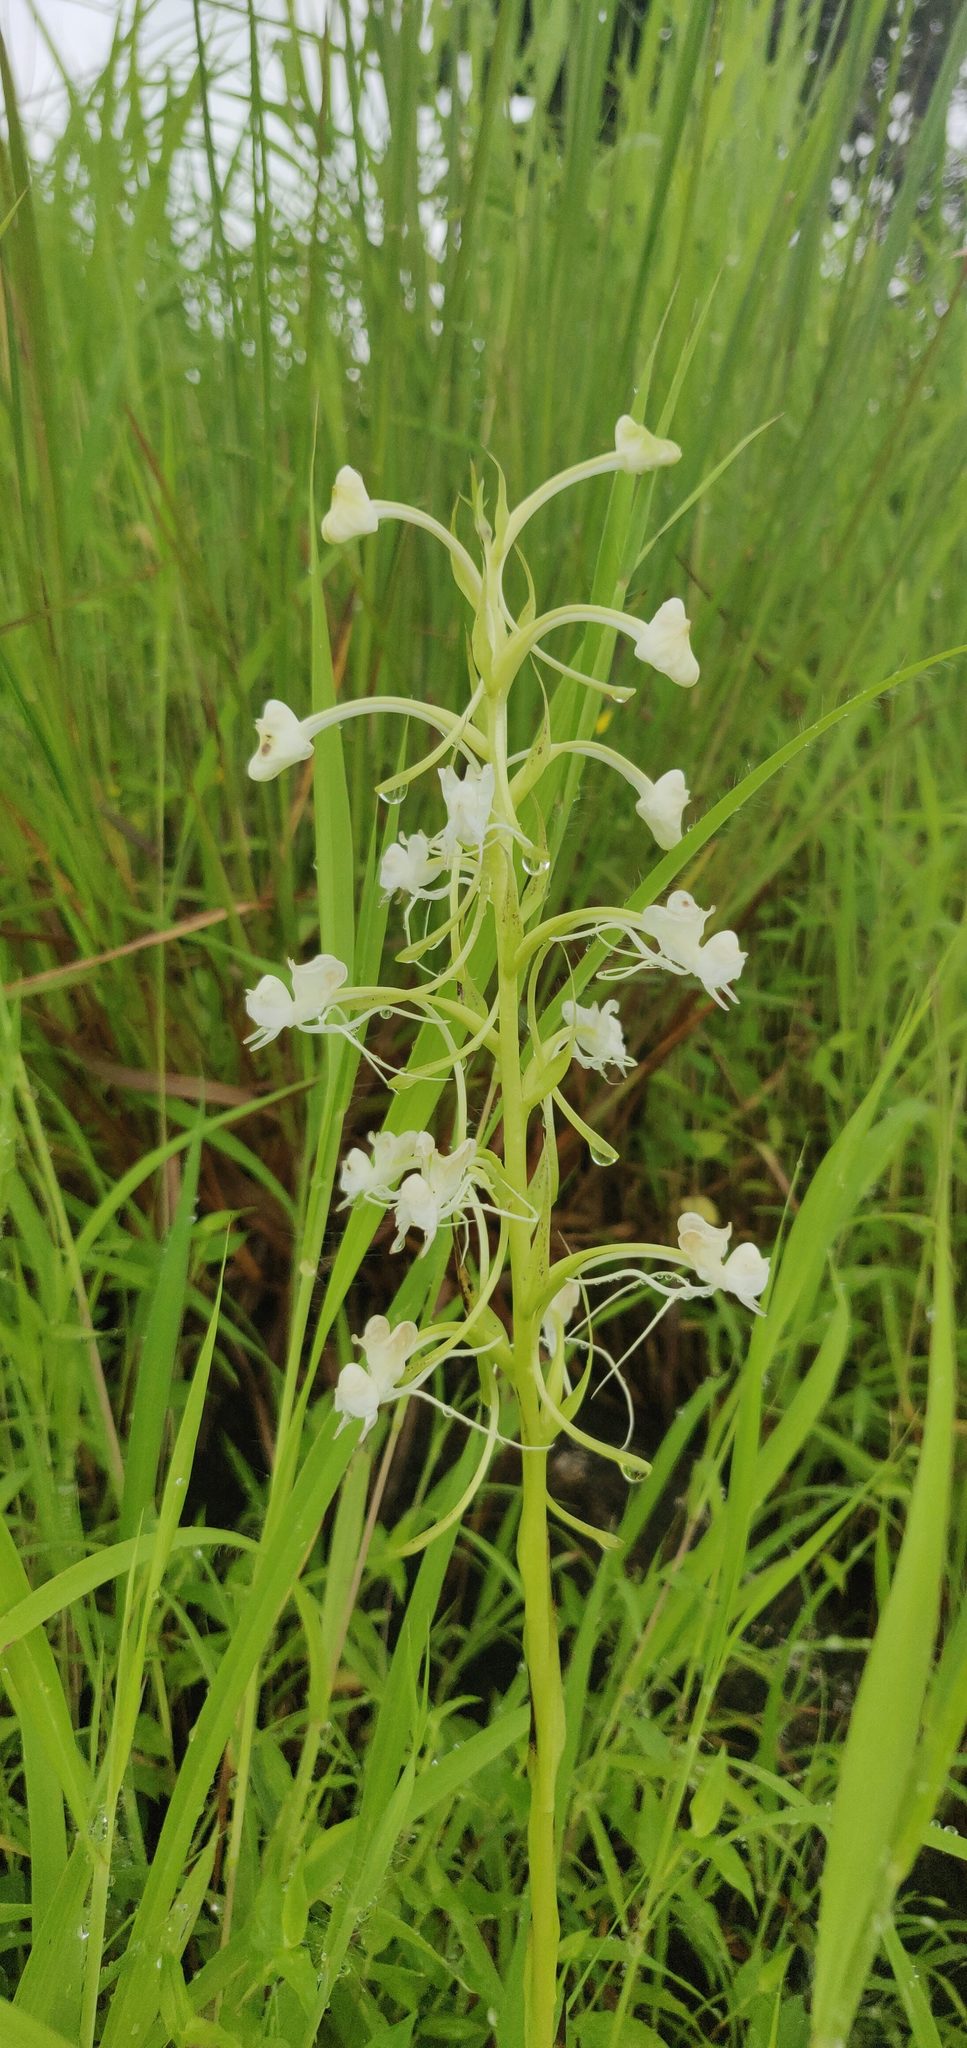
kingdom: Plantae
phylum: Tracheophyta
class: Liliopsida
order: Asparagales
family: Orchidaceae
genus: Habenaria
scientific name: Habenaria commelinifolia
